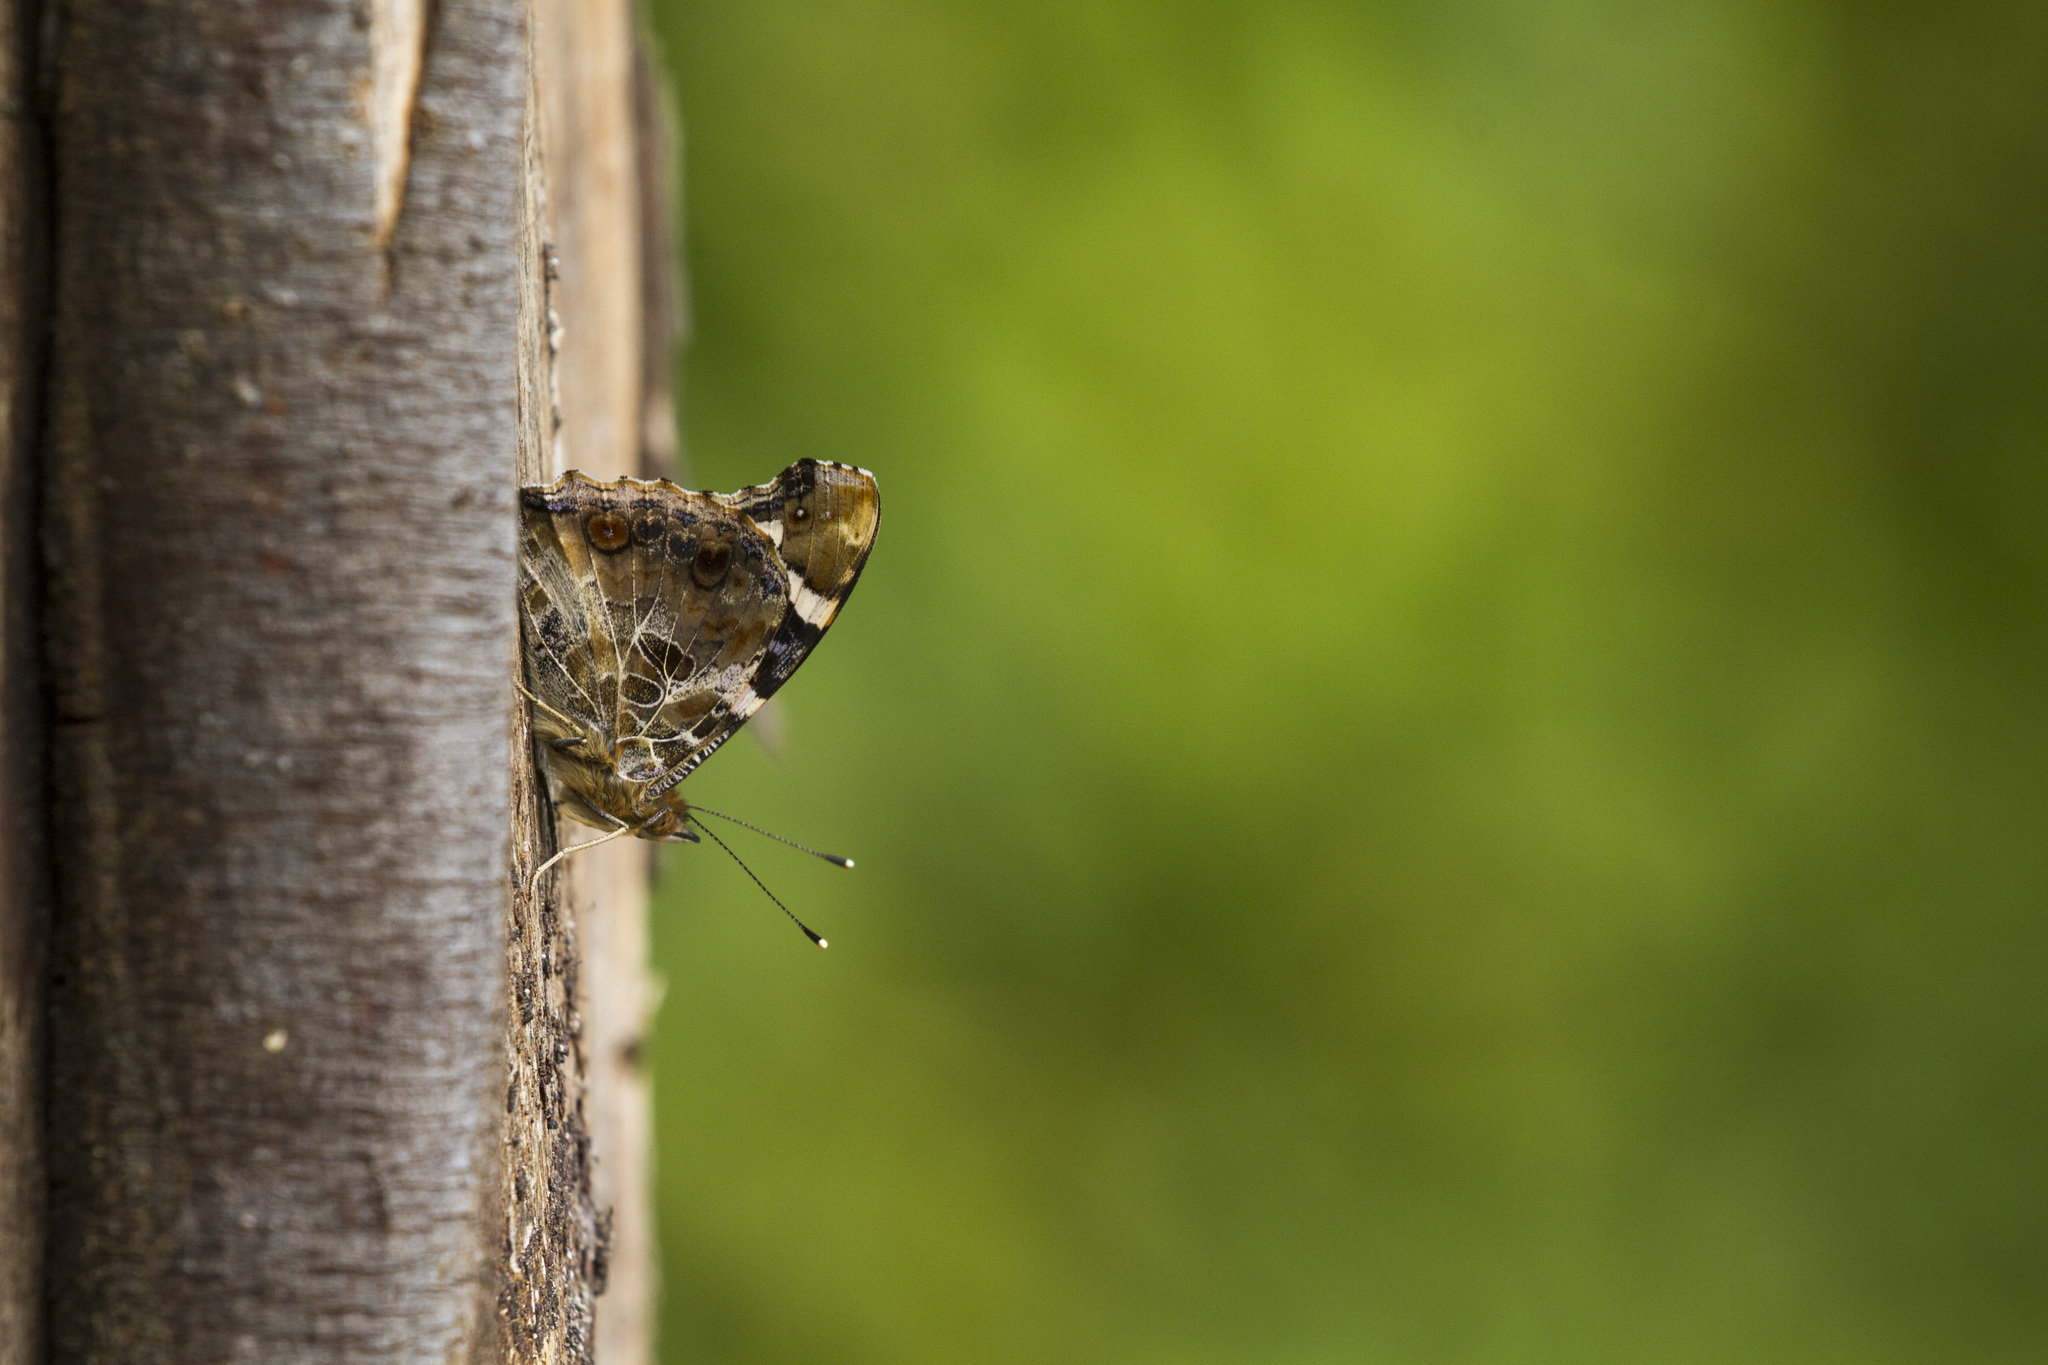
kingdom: Animalia
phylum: Arthropoda
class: Insecta
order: Lepidoptera
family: Nymphalidae
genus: Vanessa
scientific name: Vanessa indica
